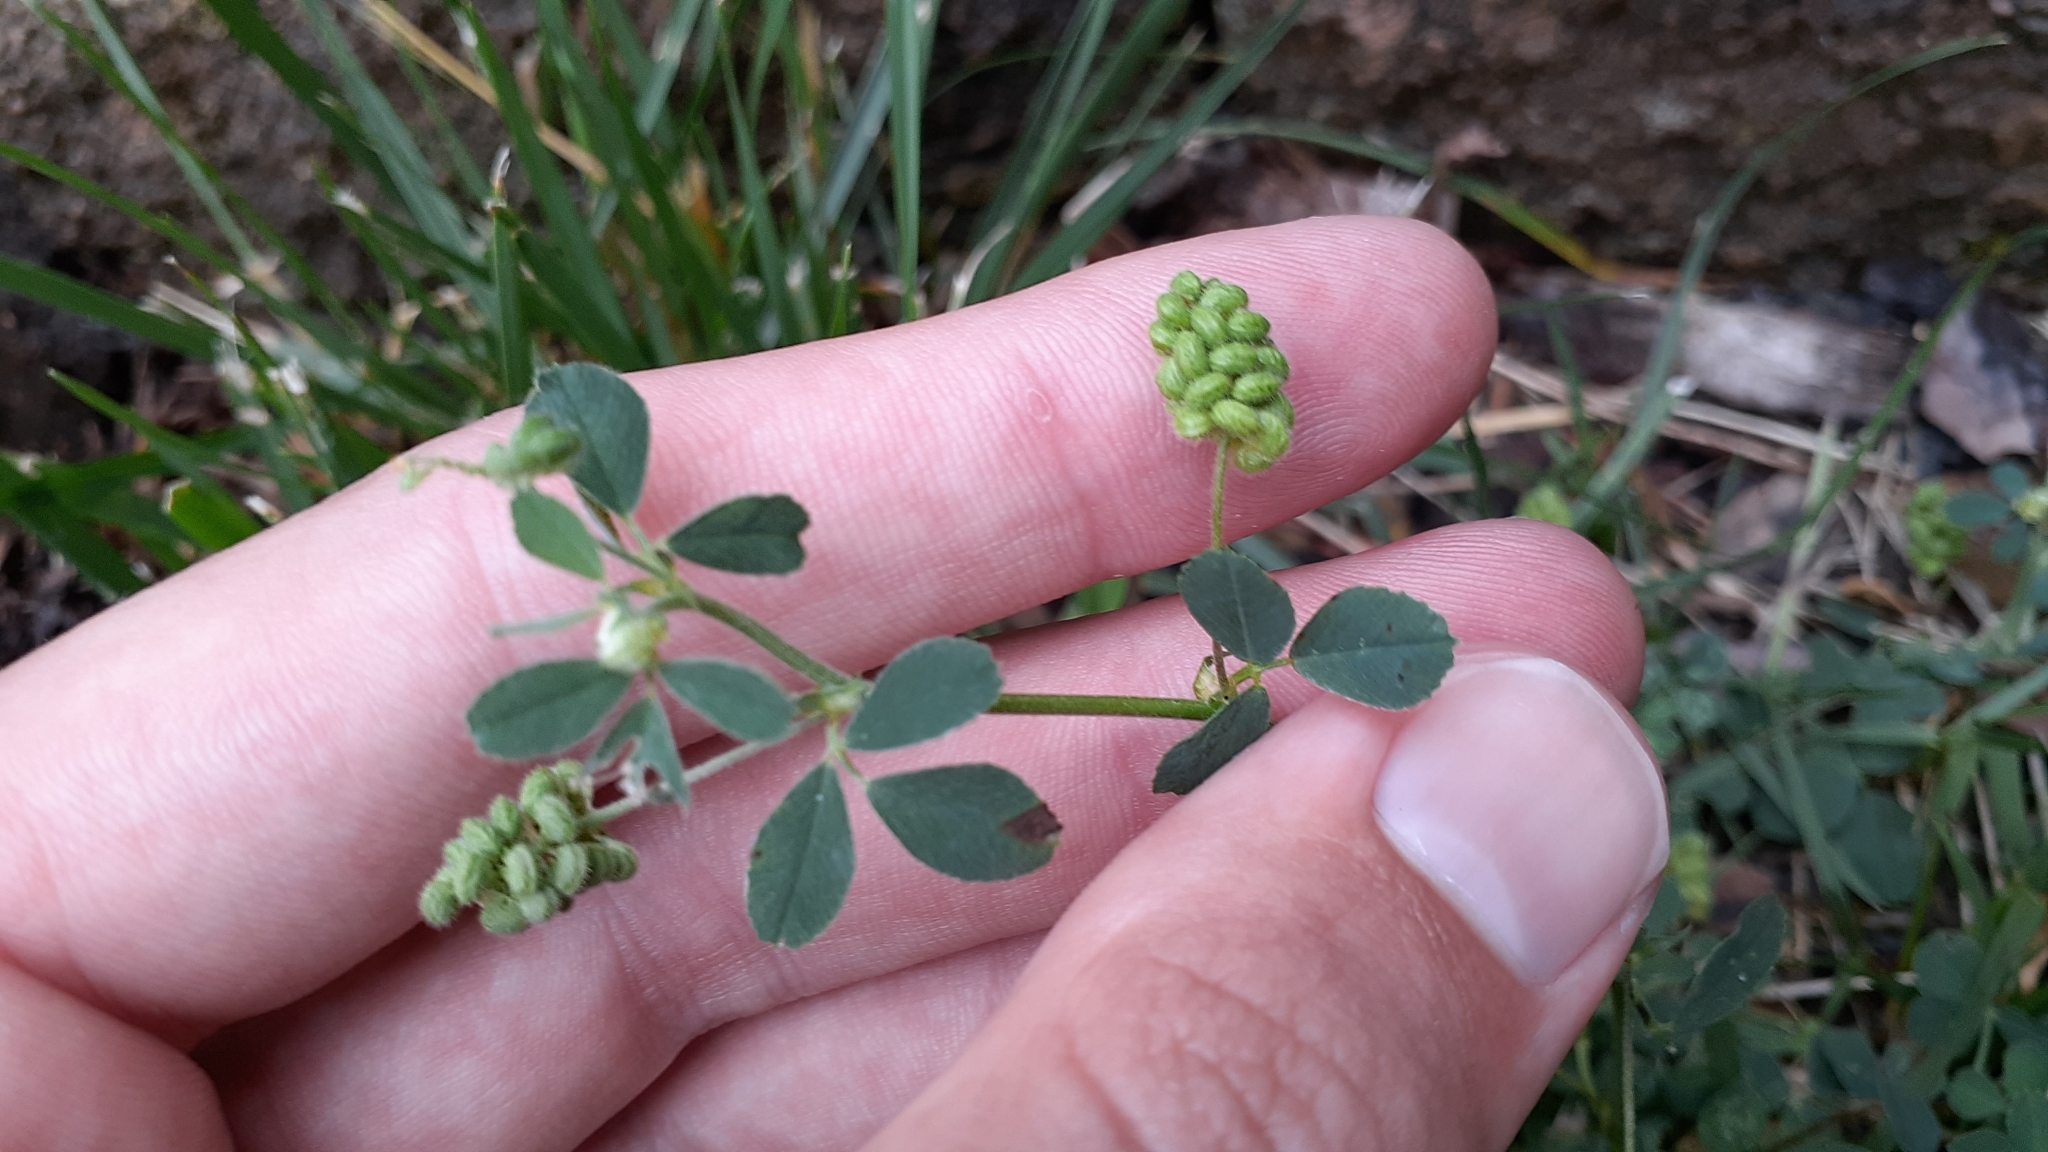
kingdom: Plantae
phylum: Tracheophyta
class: Magnoliopsida
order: Fabales
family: Fabaceae
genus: Medicago
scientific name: Medicago lupulina
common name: Black medick
